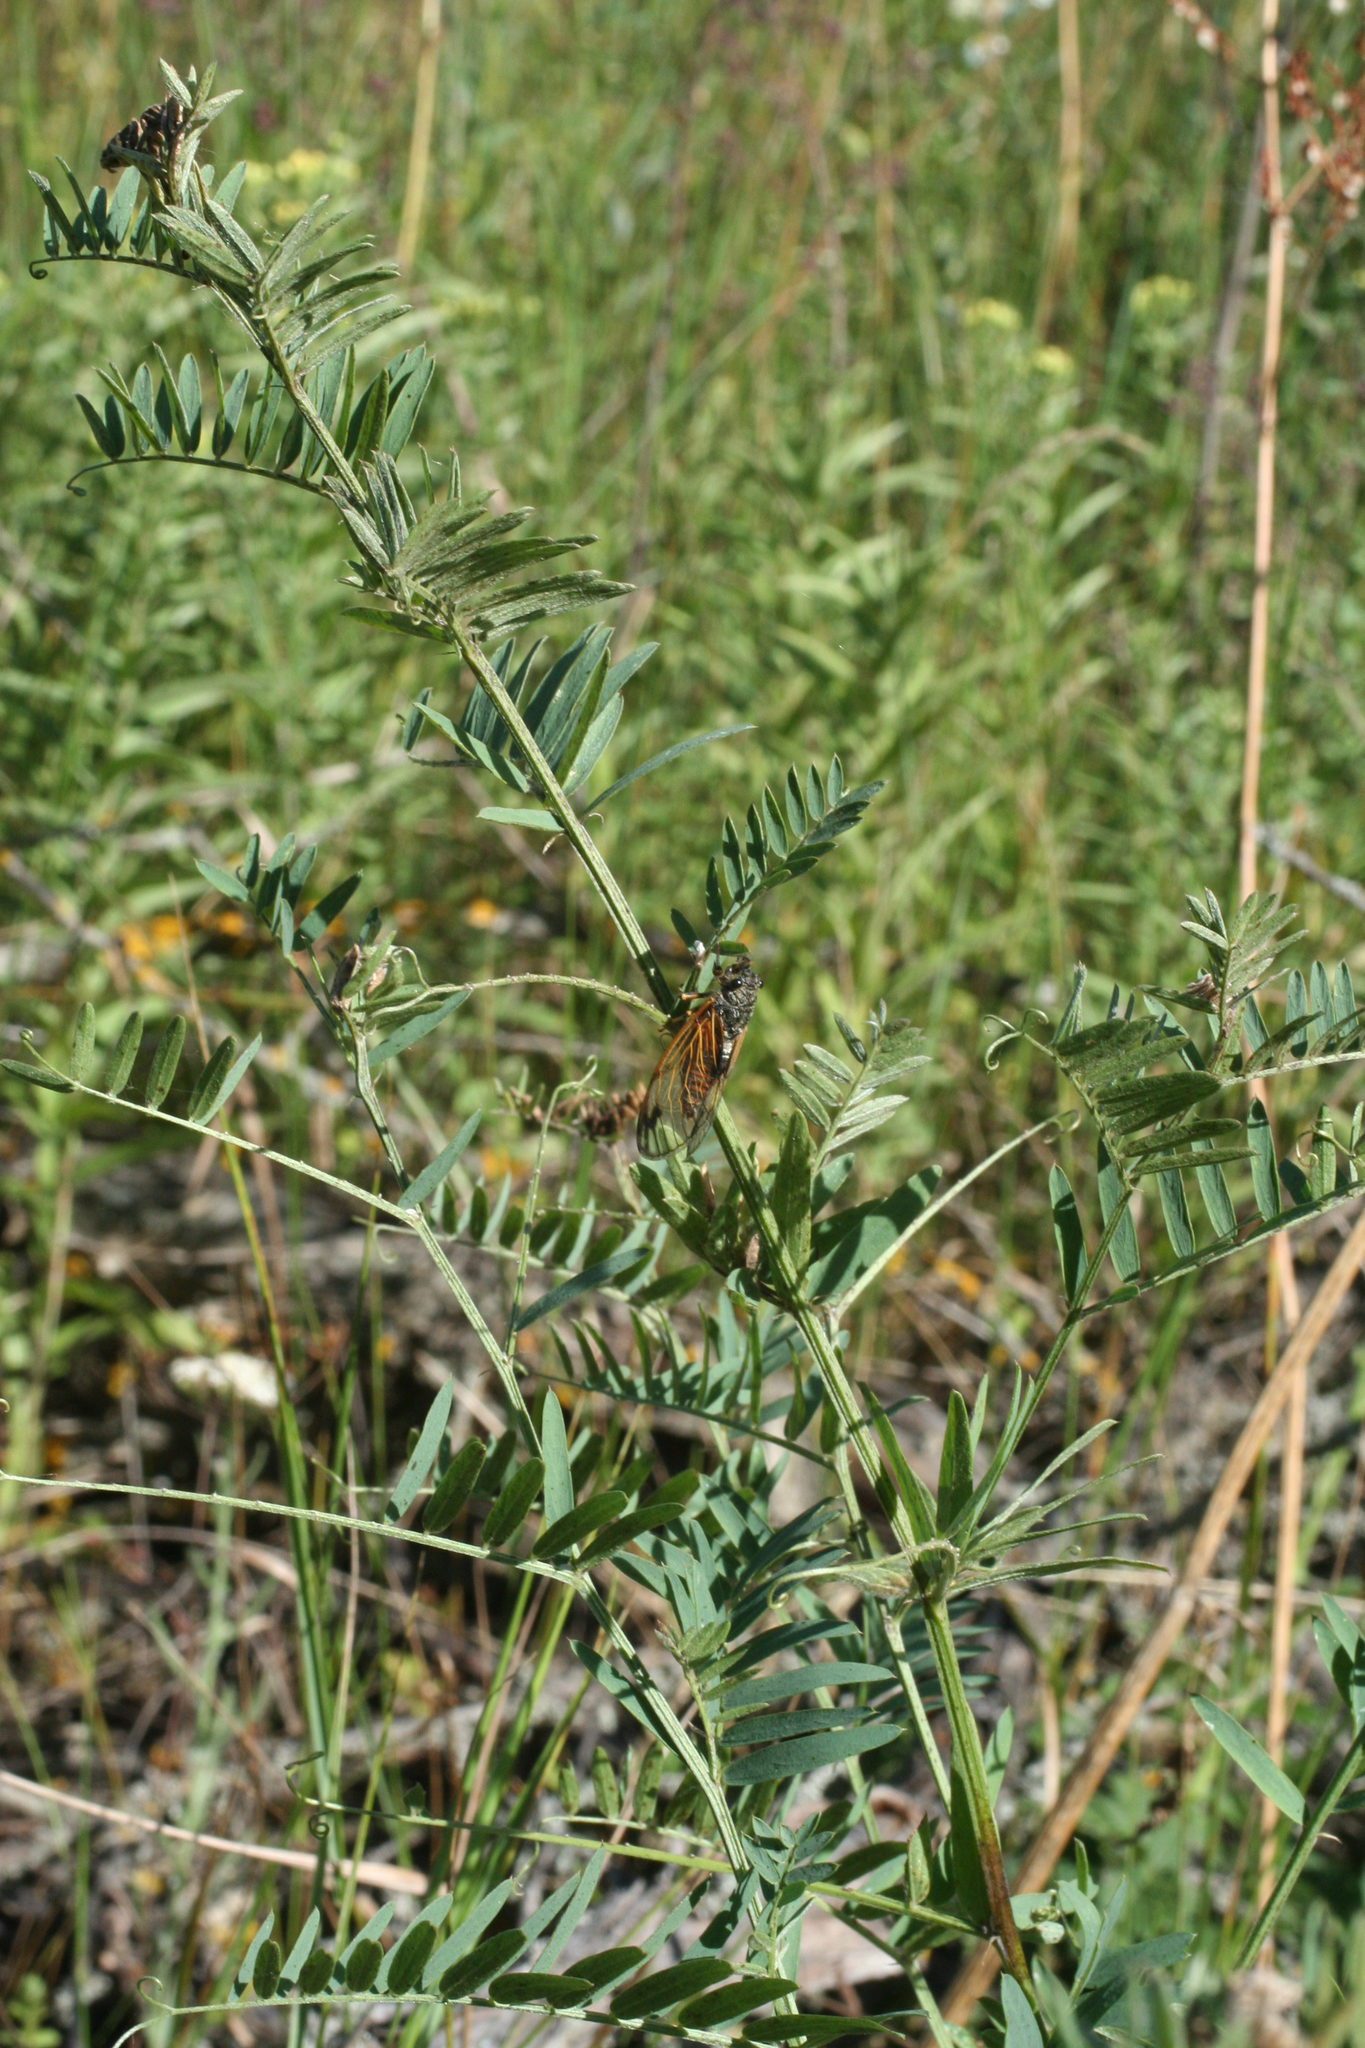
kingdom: Animalia
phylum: Arthropoda
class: Insecta
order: Hemiptera
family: Cicadidae
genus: Cicadetta
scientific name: Cicadetta concinna
